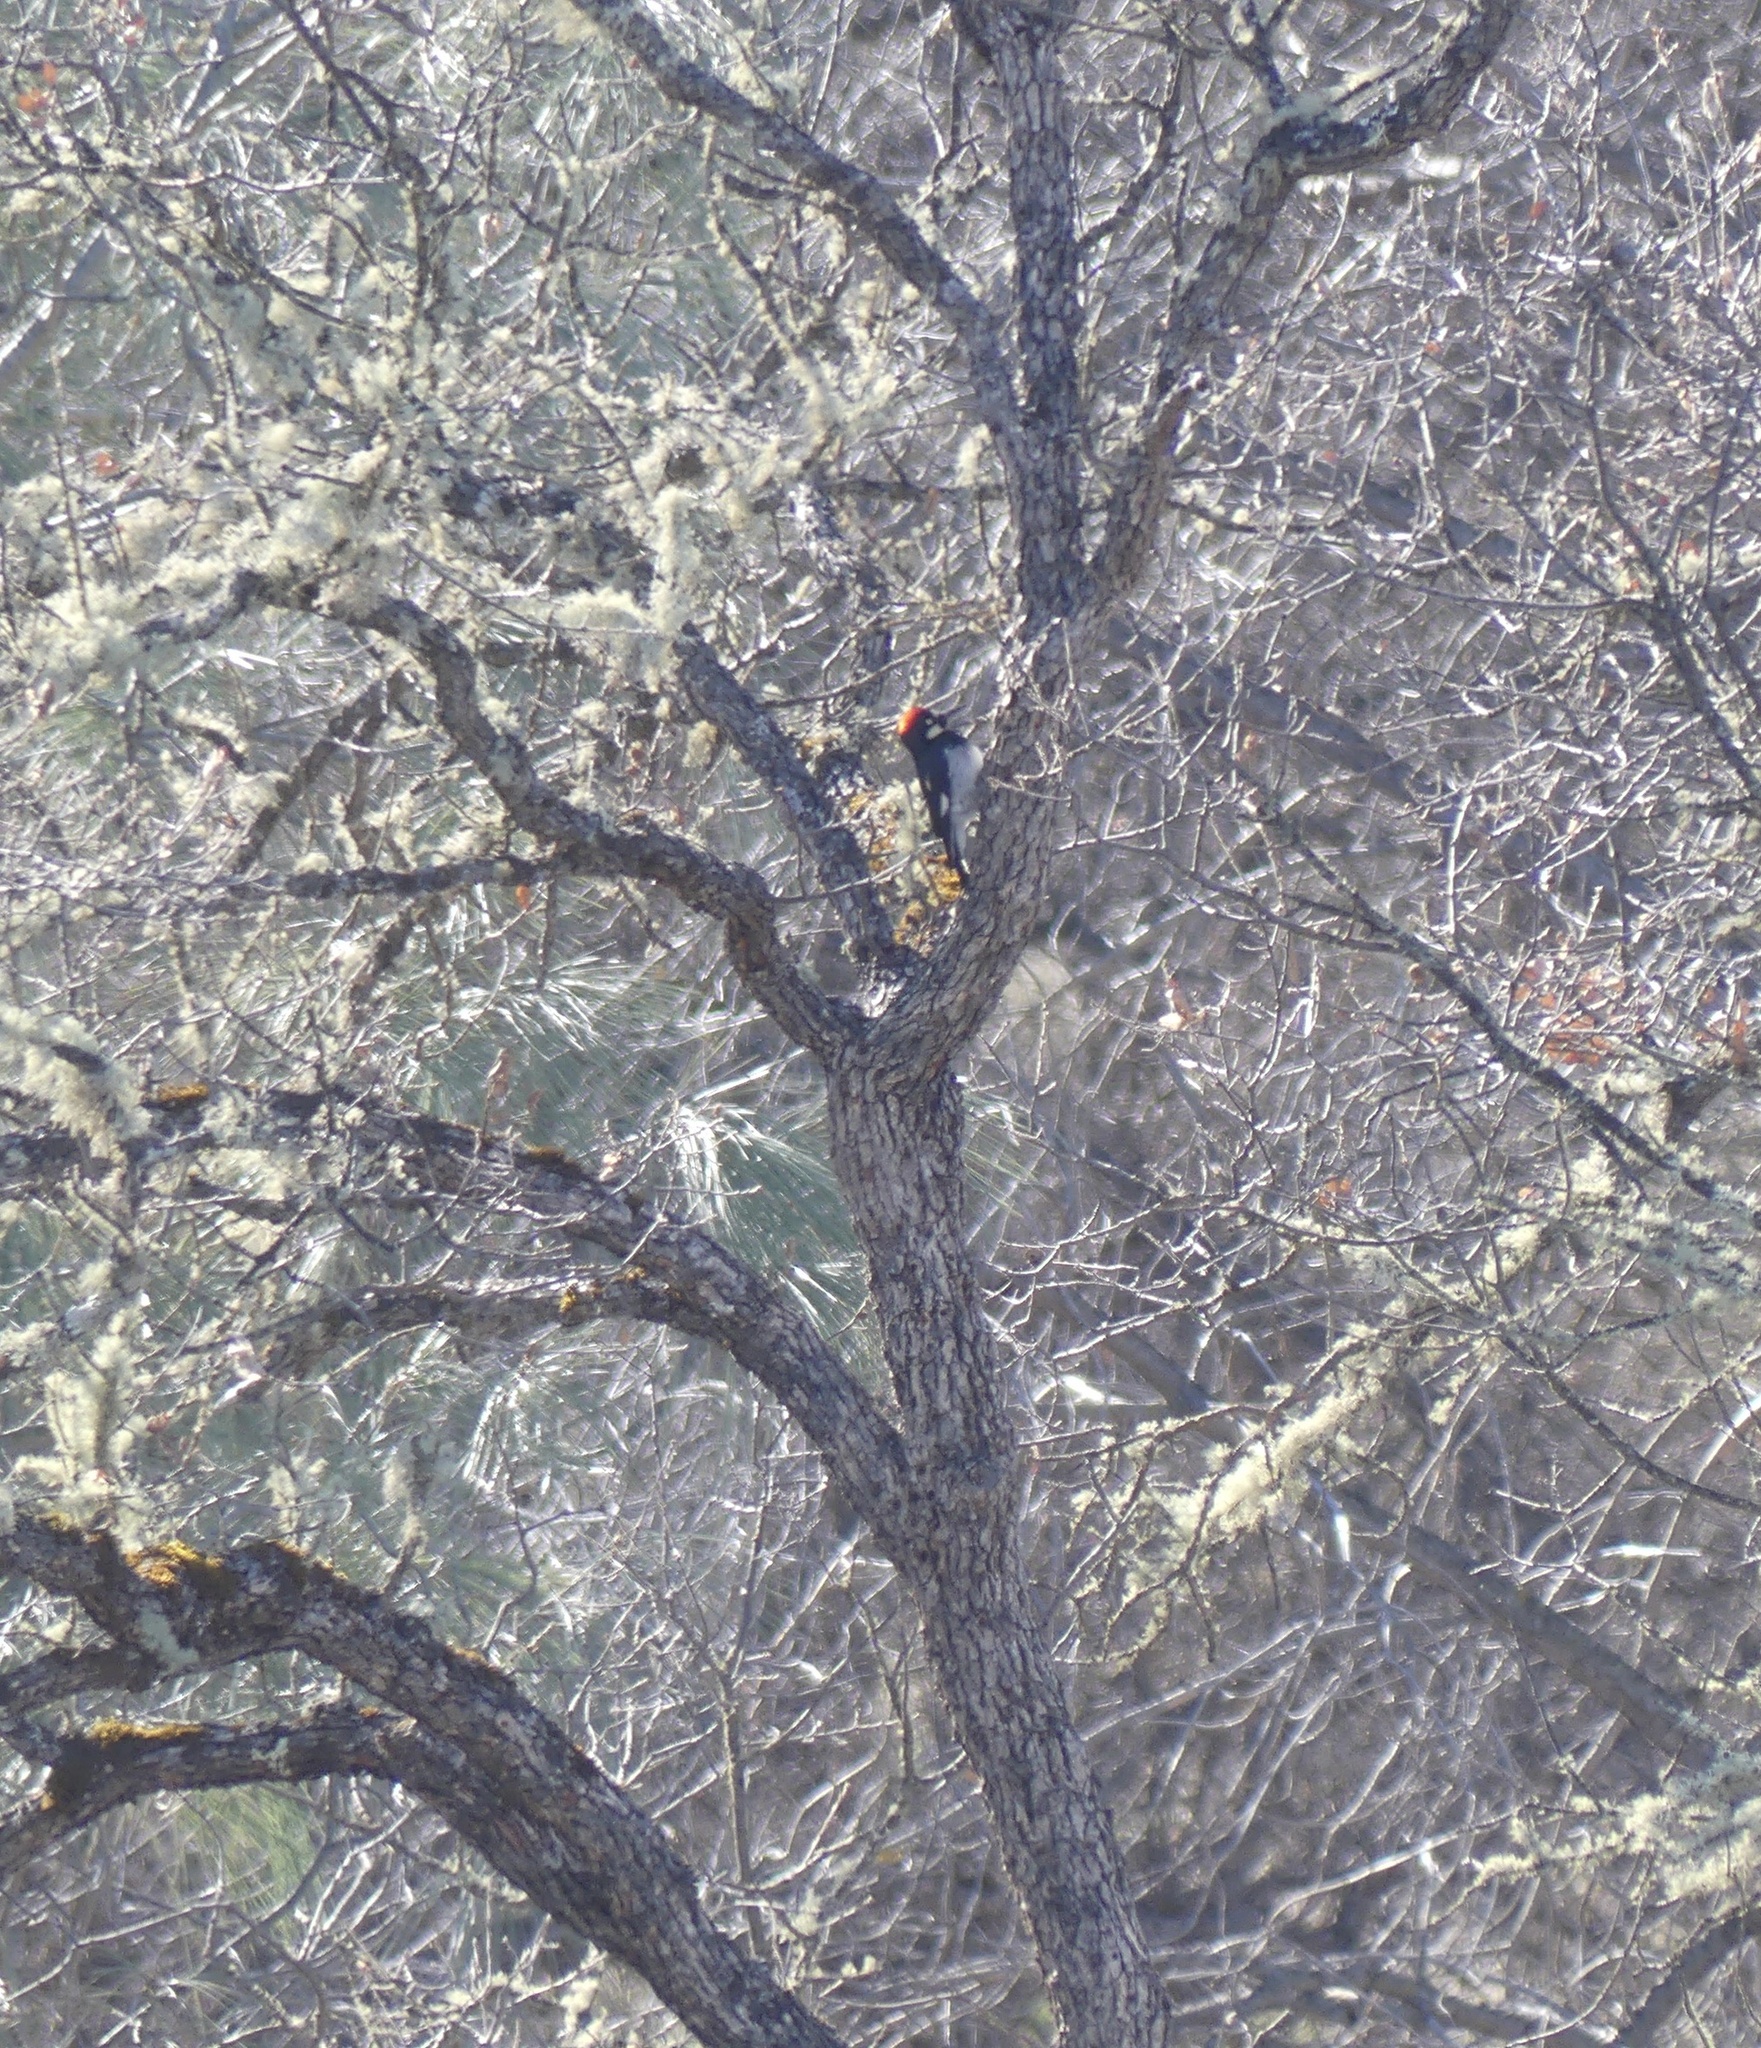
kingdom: Animalia
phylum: Chordata
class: Aves
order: Piciformes
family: Picidae
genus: Melanerpes
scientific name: Melanerpes formicivorus
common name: Acorn woodpecker
